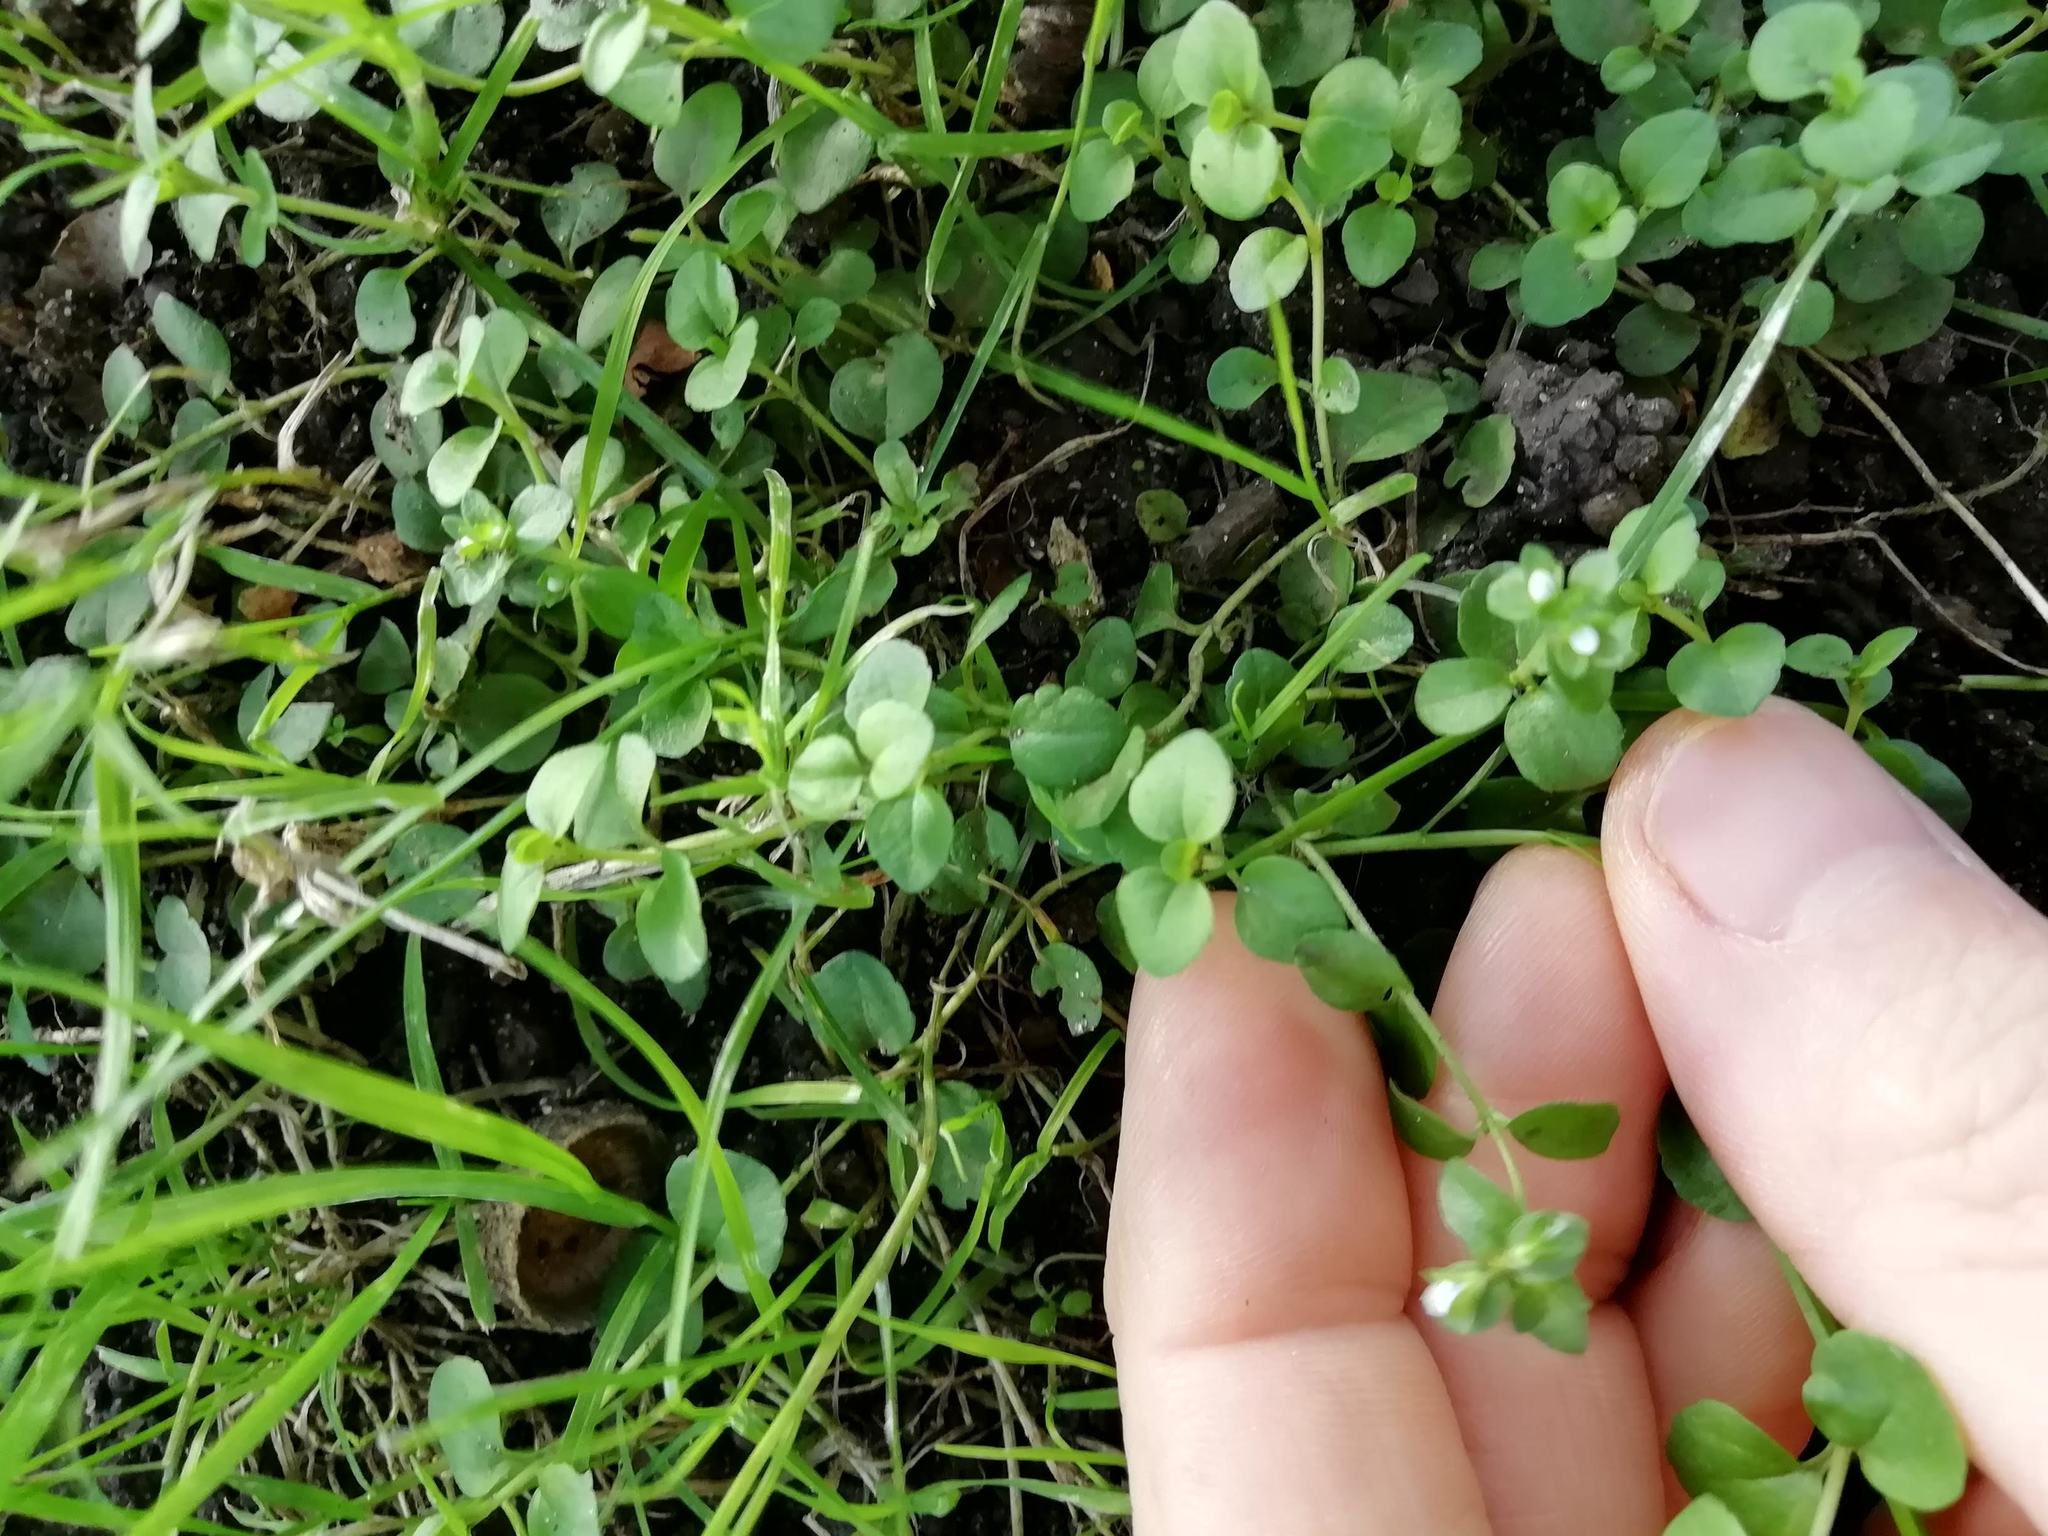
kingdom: Plantae
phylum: Tracheophyta
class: Magnoliopsida
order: Caryophyllales
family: Caryophyllaceae
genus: Stellaria
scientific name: Stellaria media
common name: Common chickweed
